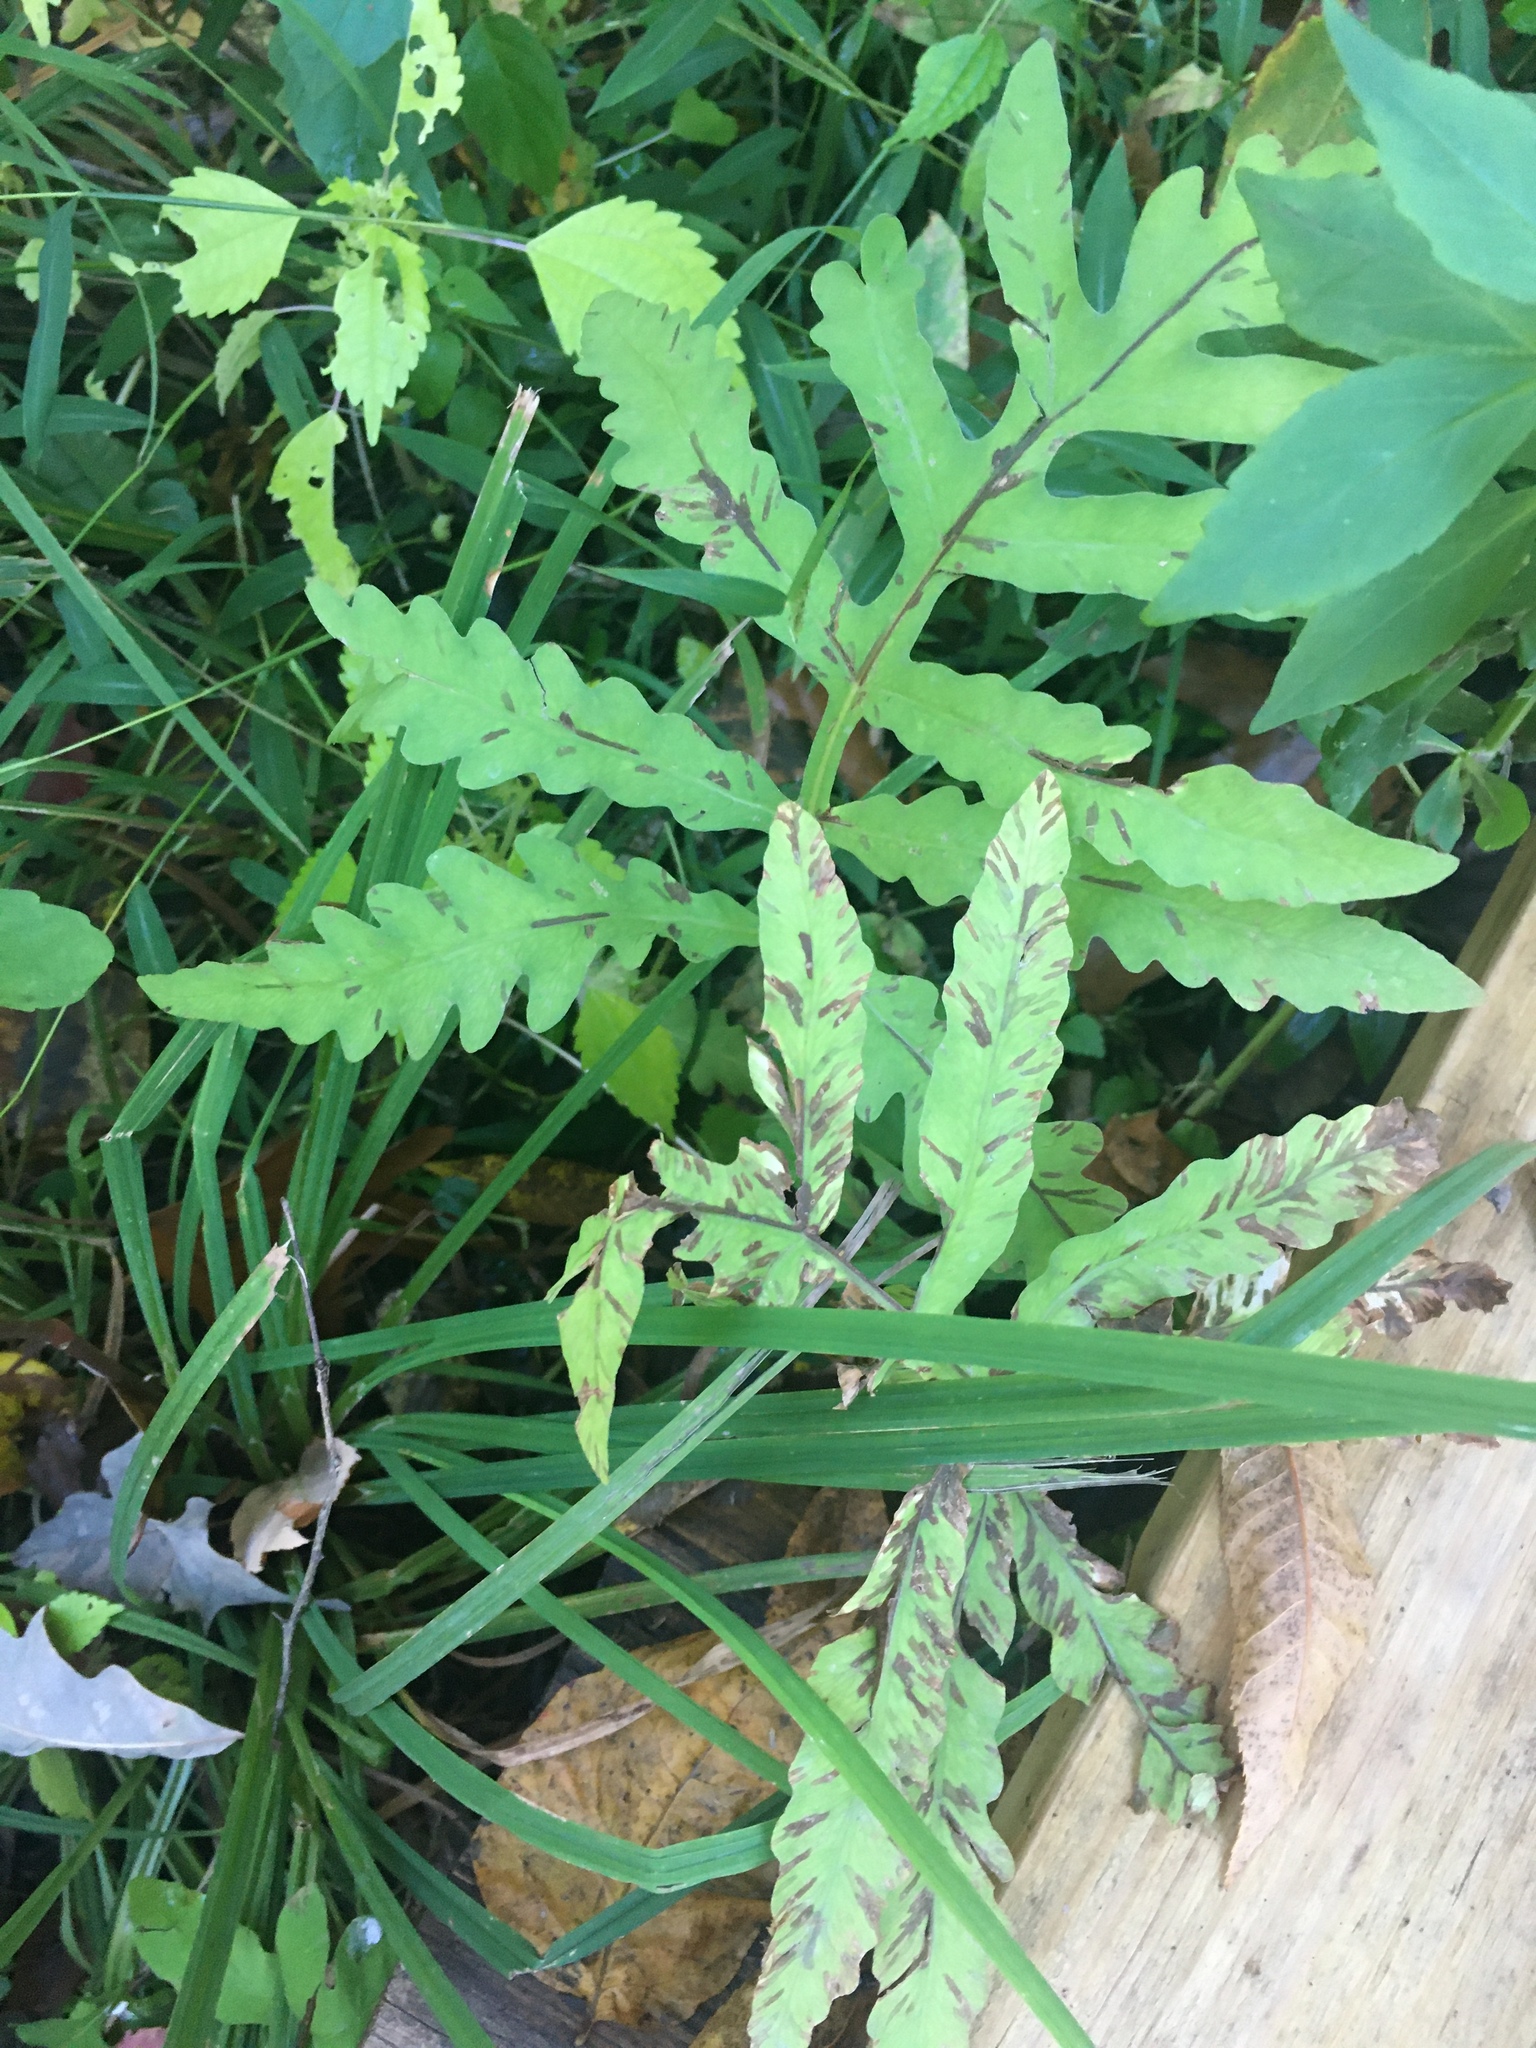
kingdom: Plantae
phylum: Tracheophyta
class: Polypodiopsida
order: Polypodiales
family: Onocleaceae
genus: Onoclea
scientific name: Onoclea sensibilis
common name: Sensitive fern
